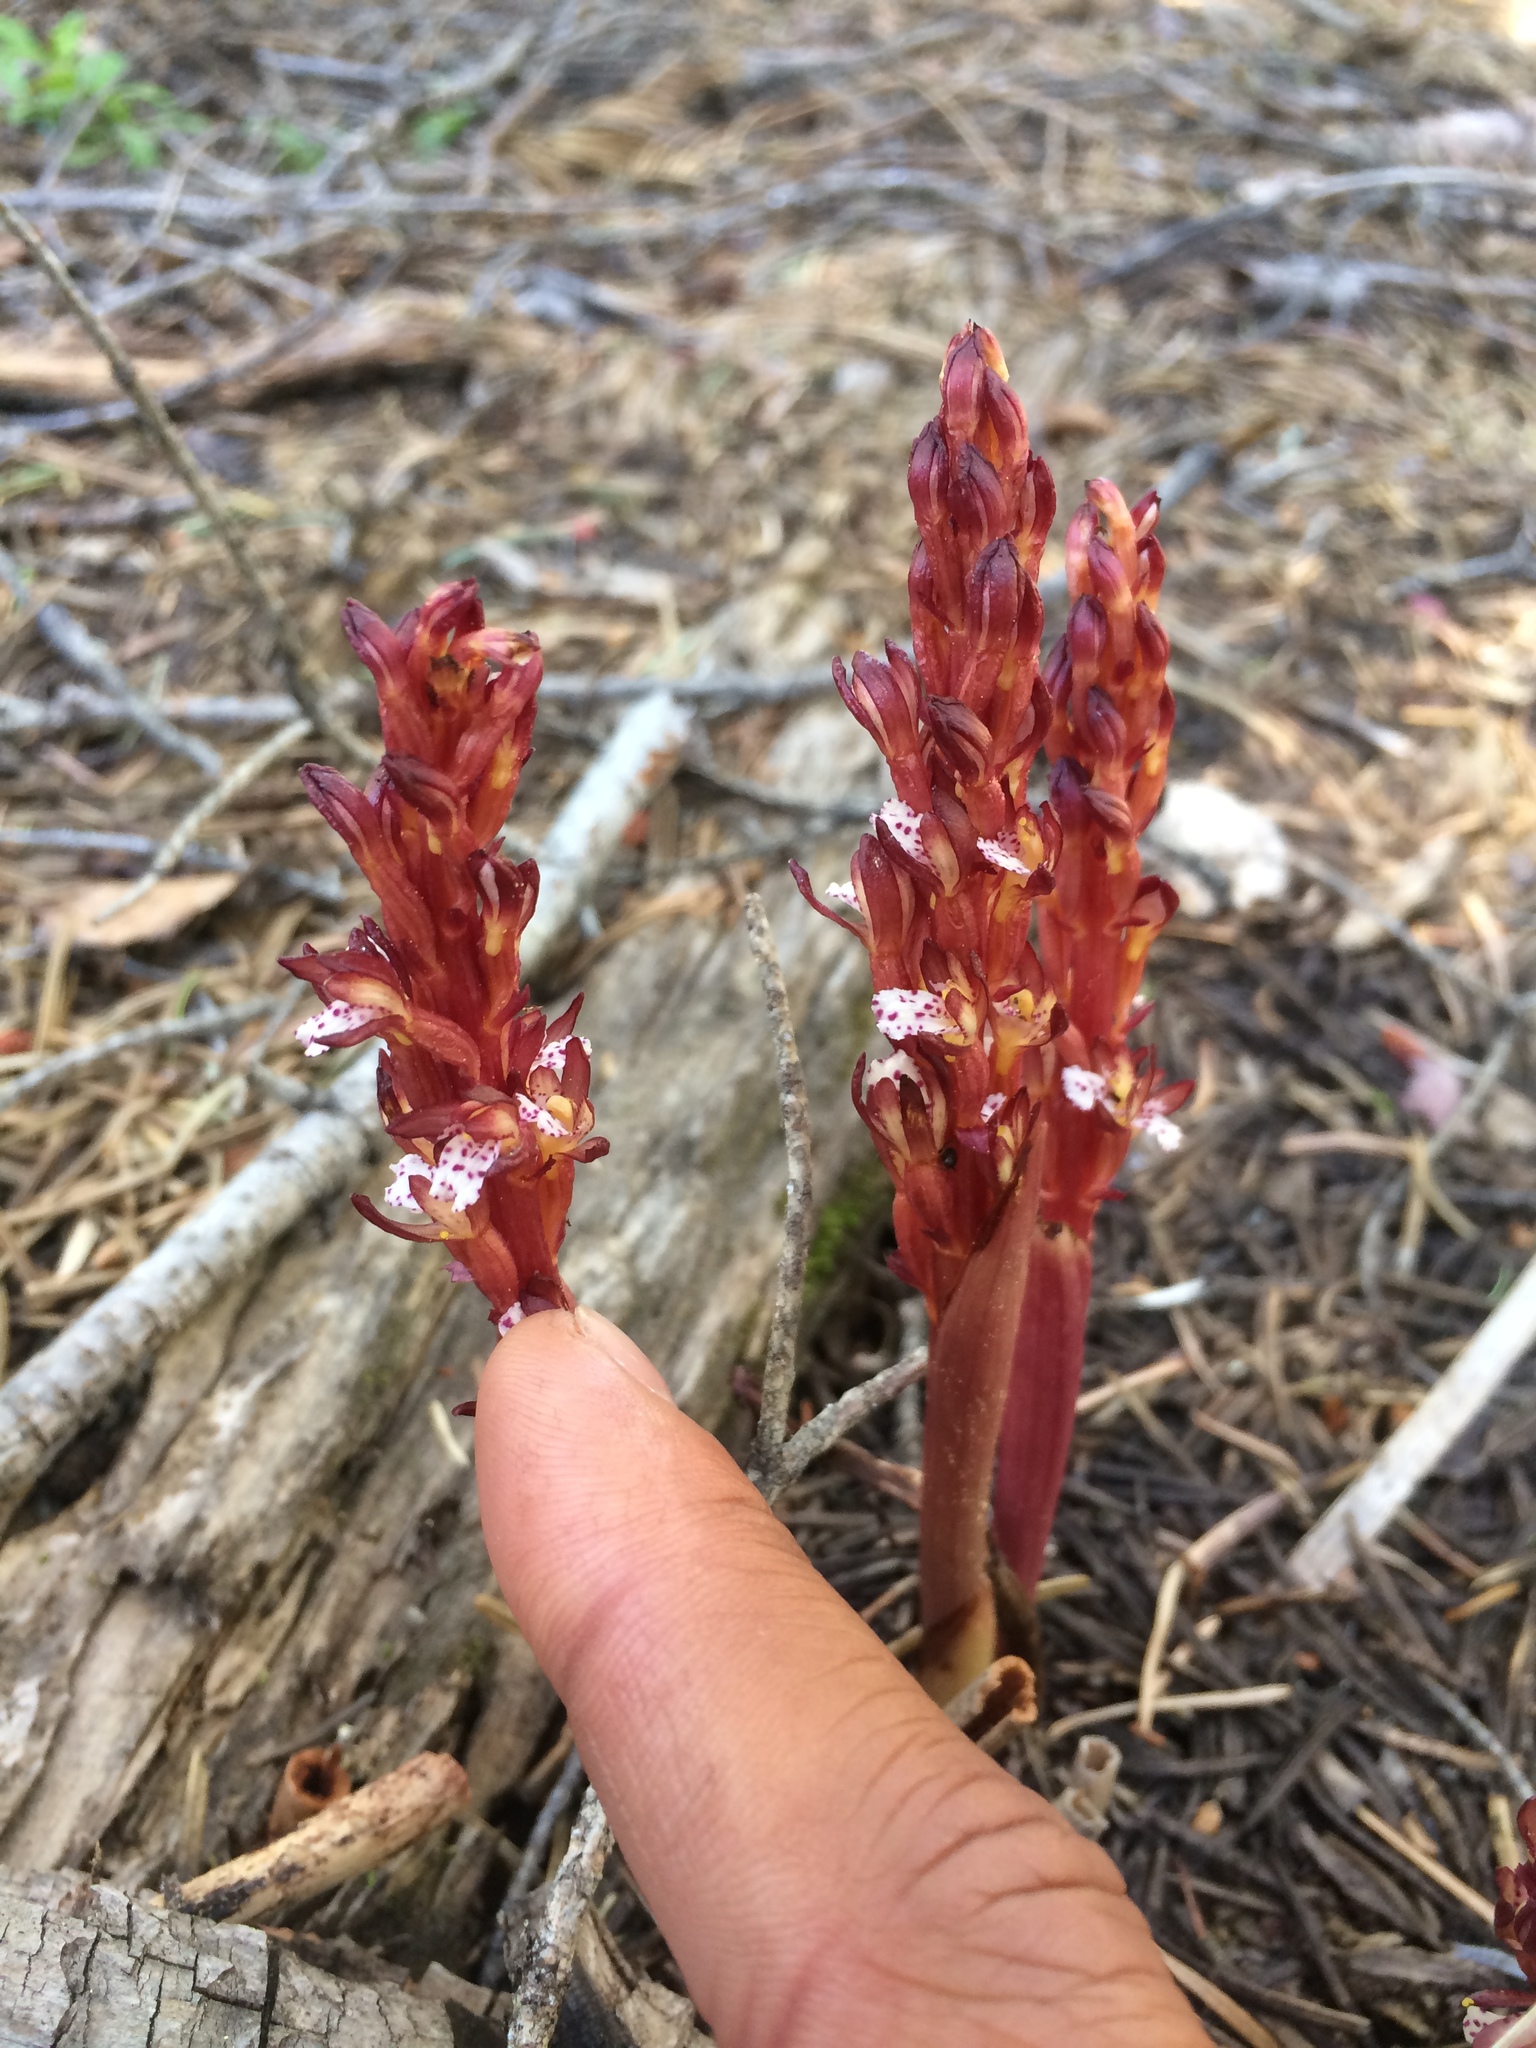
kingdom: Plantae
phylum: Tracheophyta
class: Liliopsida
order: Asparagales
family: Orchidaceae
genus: Corallorhiza
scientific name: Corallorhiza maculata
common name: Spotted coralroot
